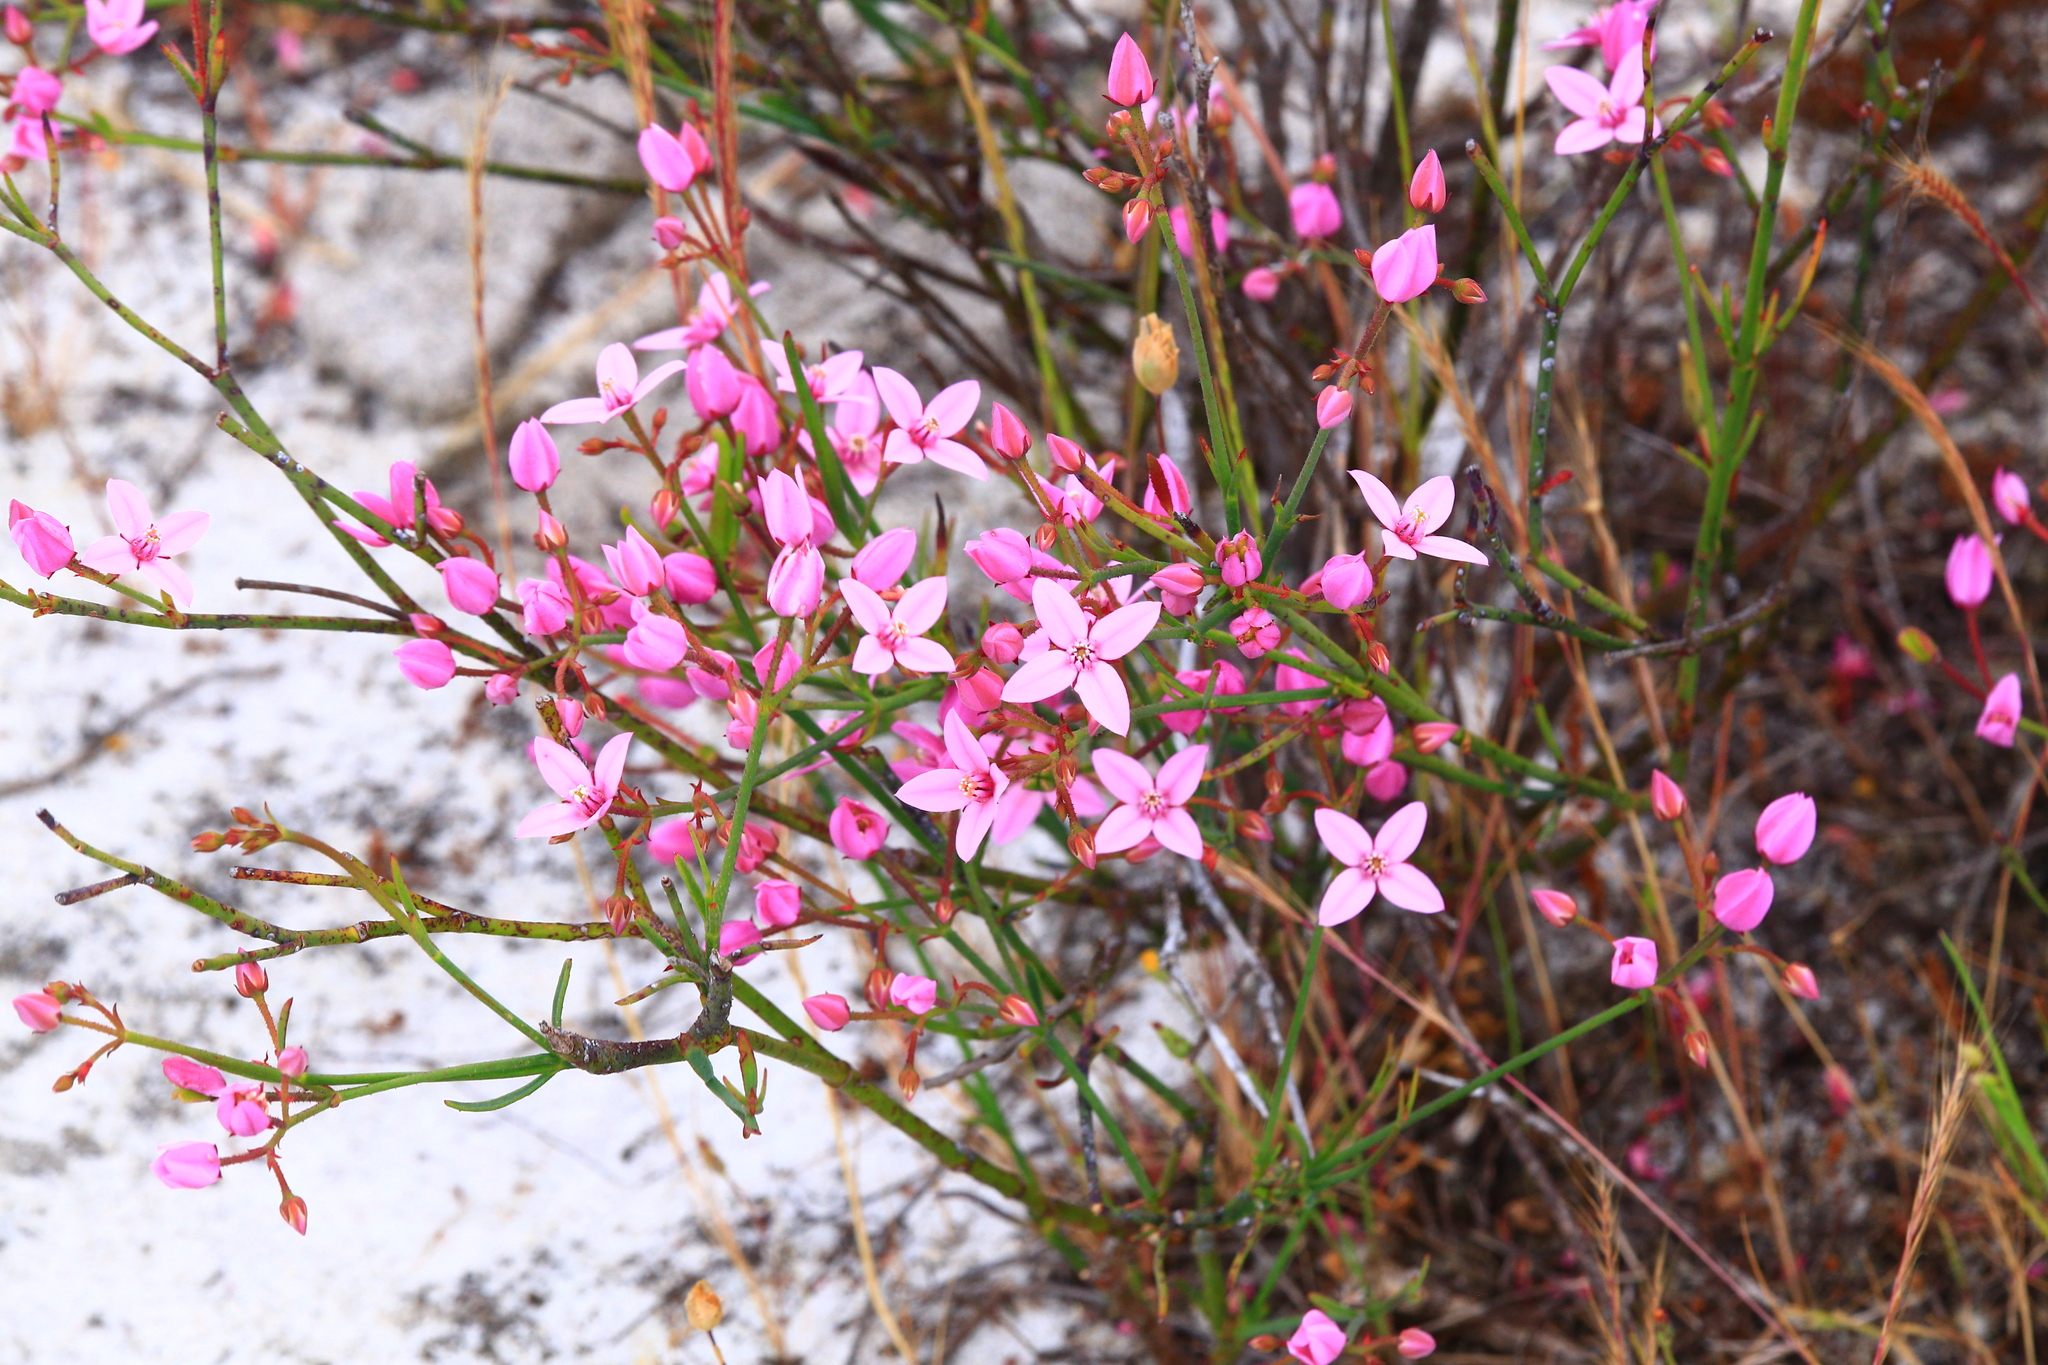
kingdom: Plantae
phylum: Tracheophyta
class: Magnoliopsida
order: Sapindales
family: Rutaceae
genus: Boronia
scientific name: Boronia dichotoma
